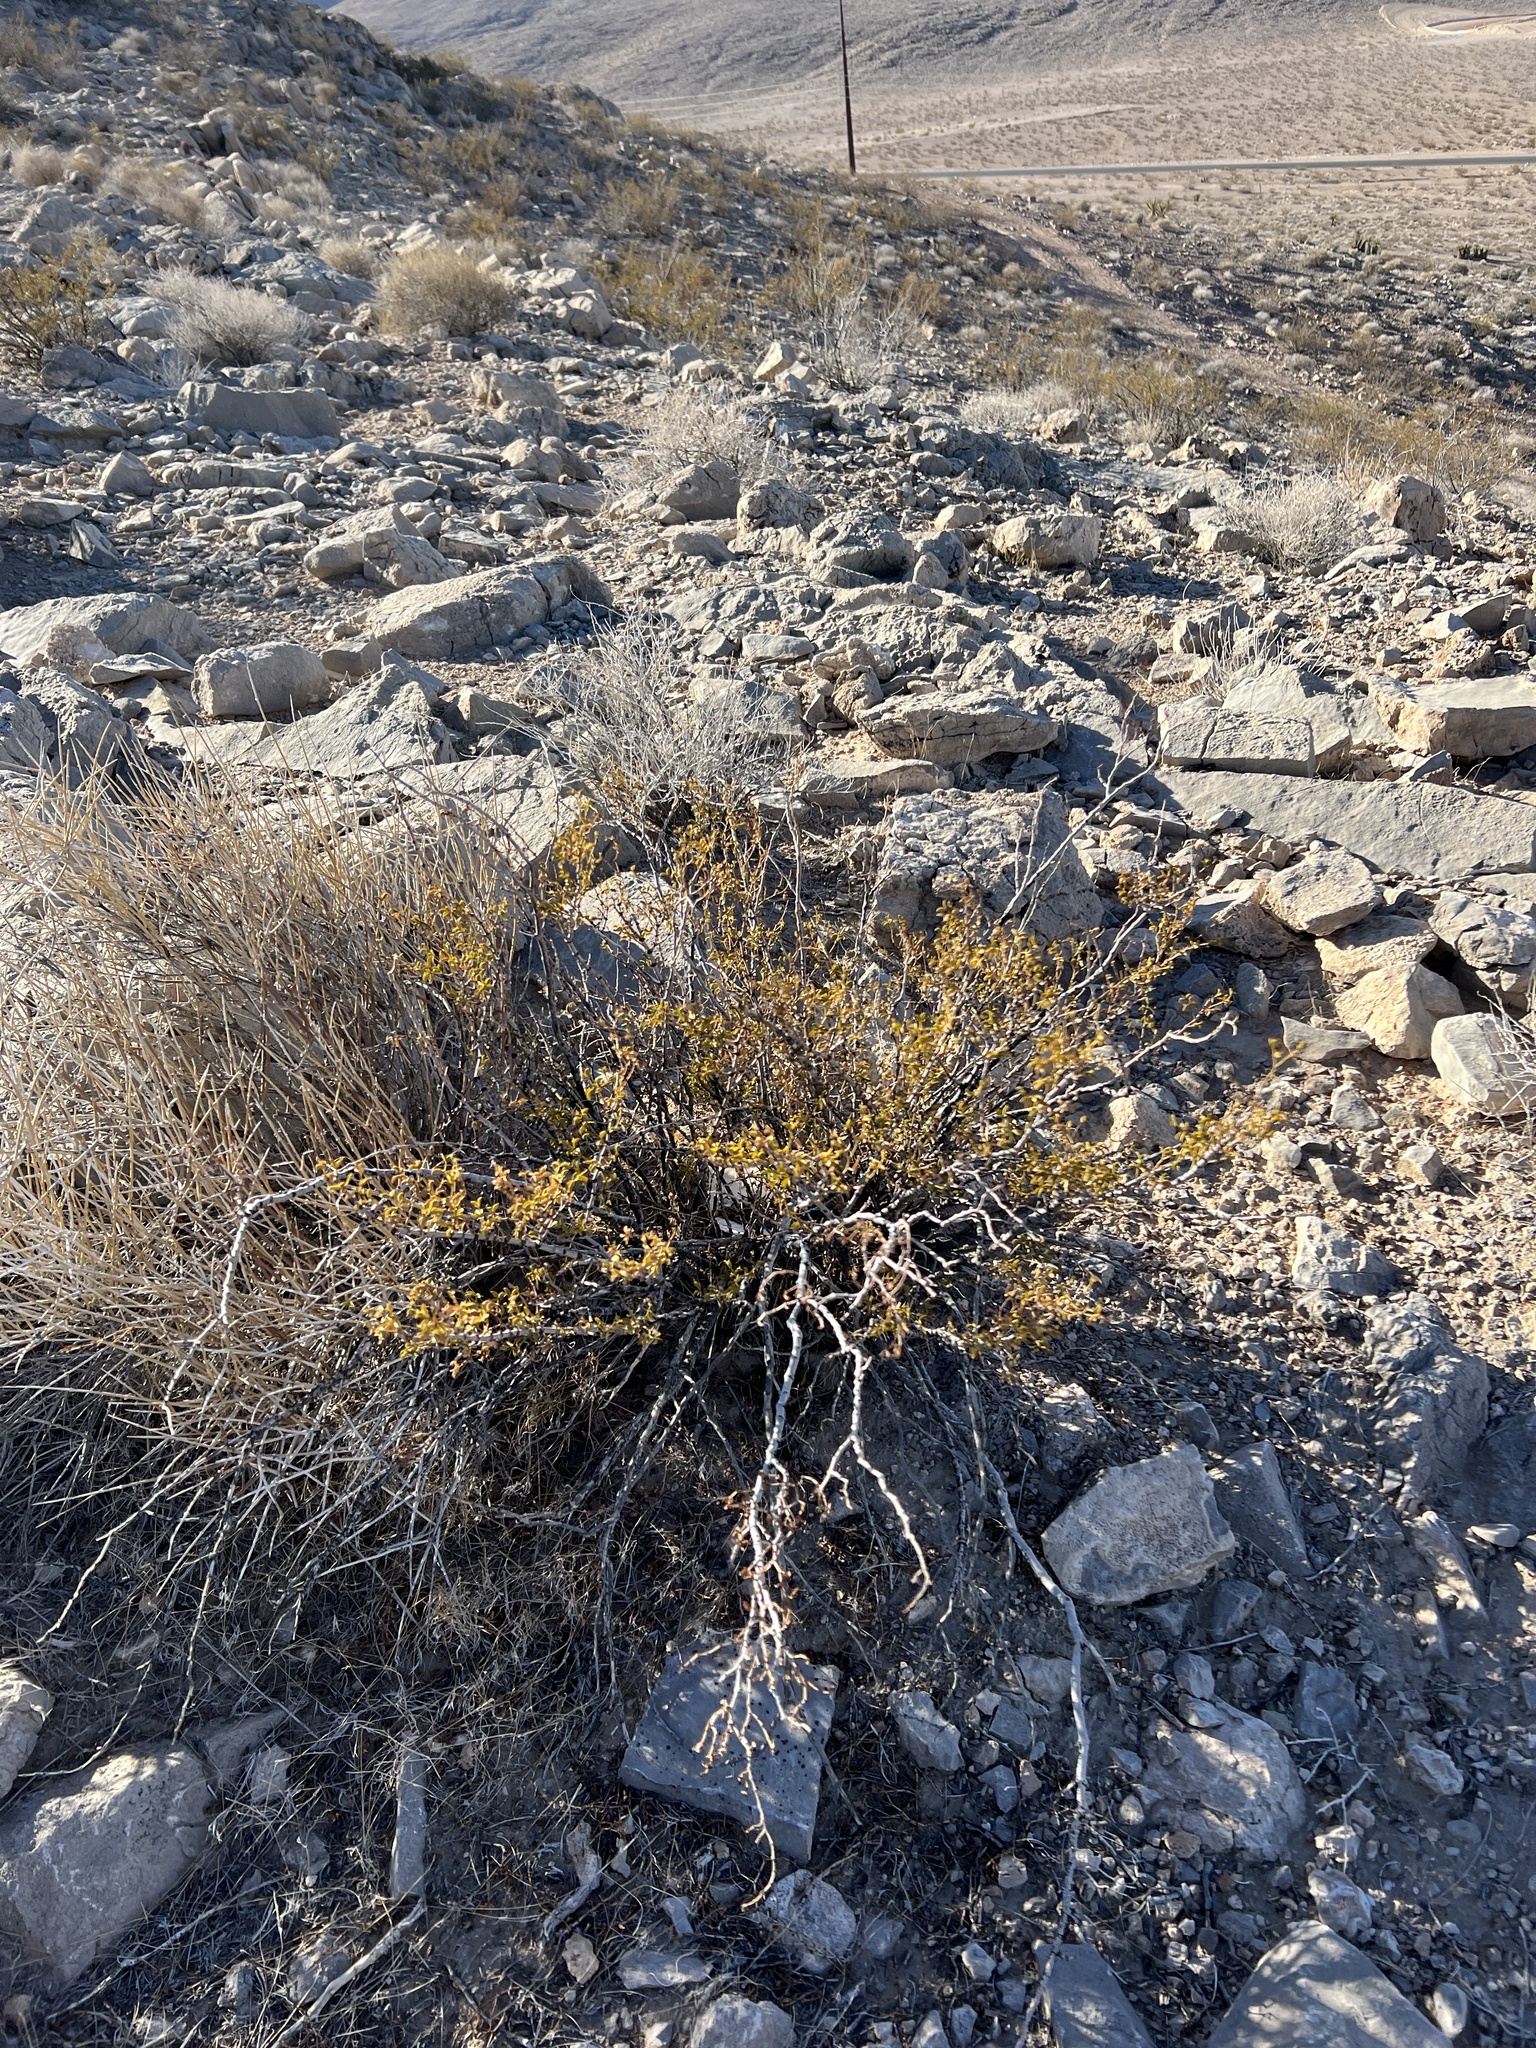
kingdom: Plantae
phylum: Tracheophyta
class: Magnoliopsida
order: Zygophyllales
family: Zygophyllaceae
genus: Larrea
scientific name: Larrea tridentata
